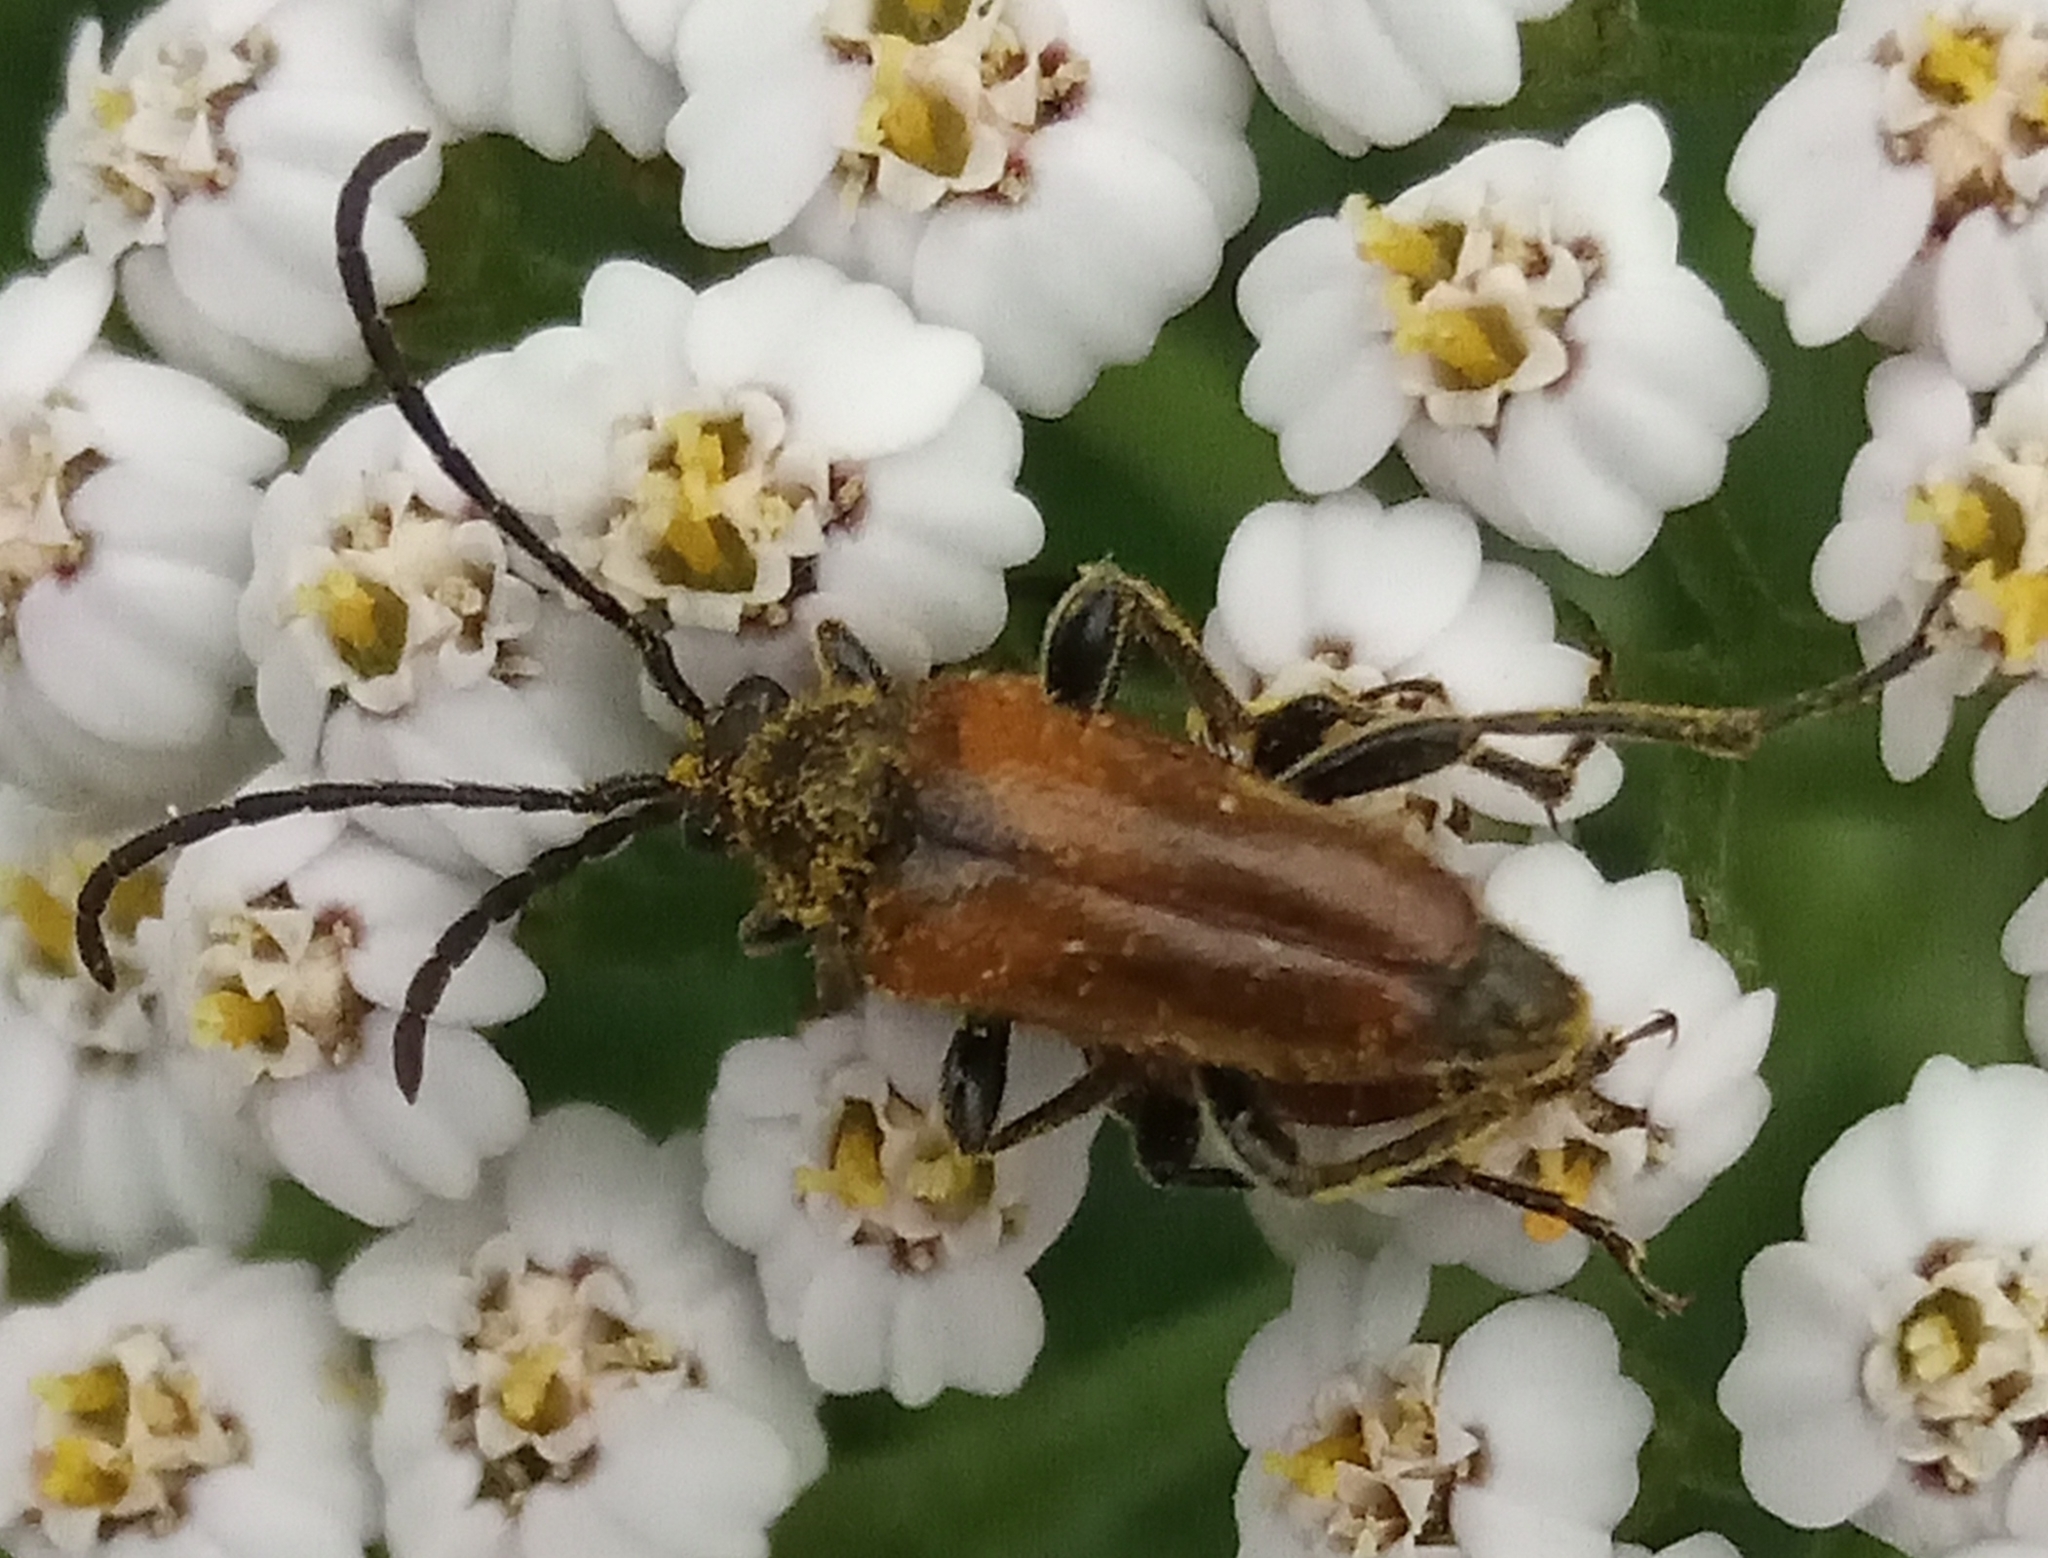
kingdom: Animalia
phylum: Arthropoda
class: Insecta
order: Coleoptera
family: Cerambycidae
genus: Pseudovadonia
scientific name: Pseudovadonia livida
